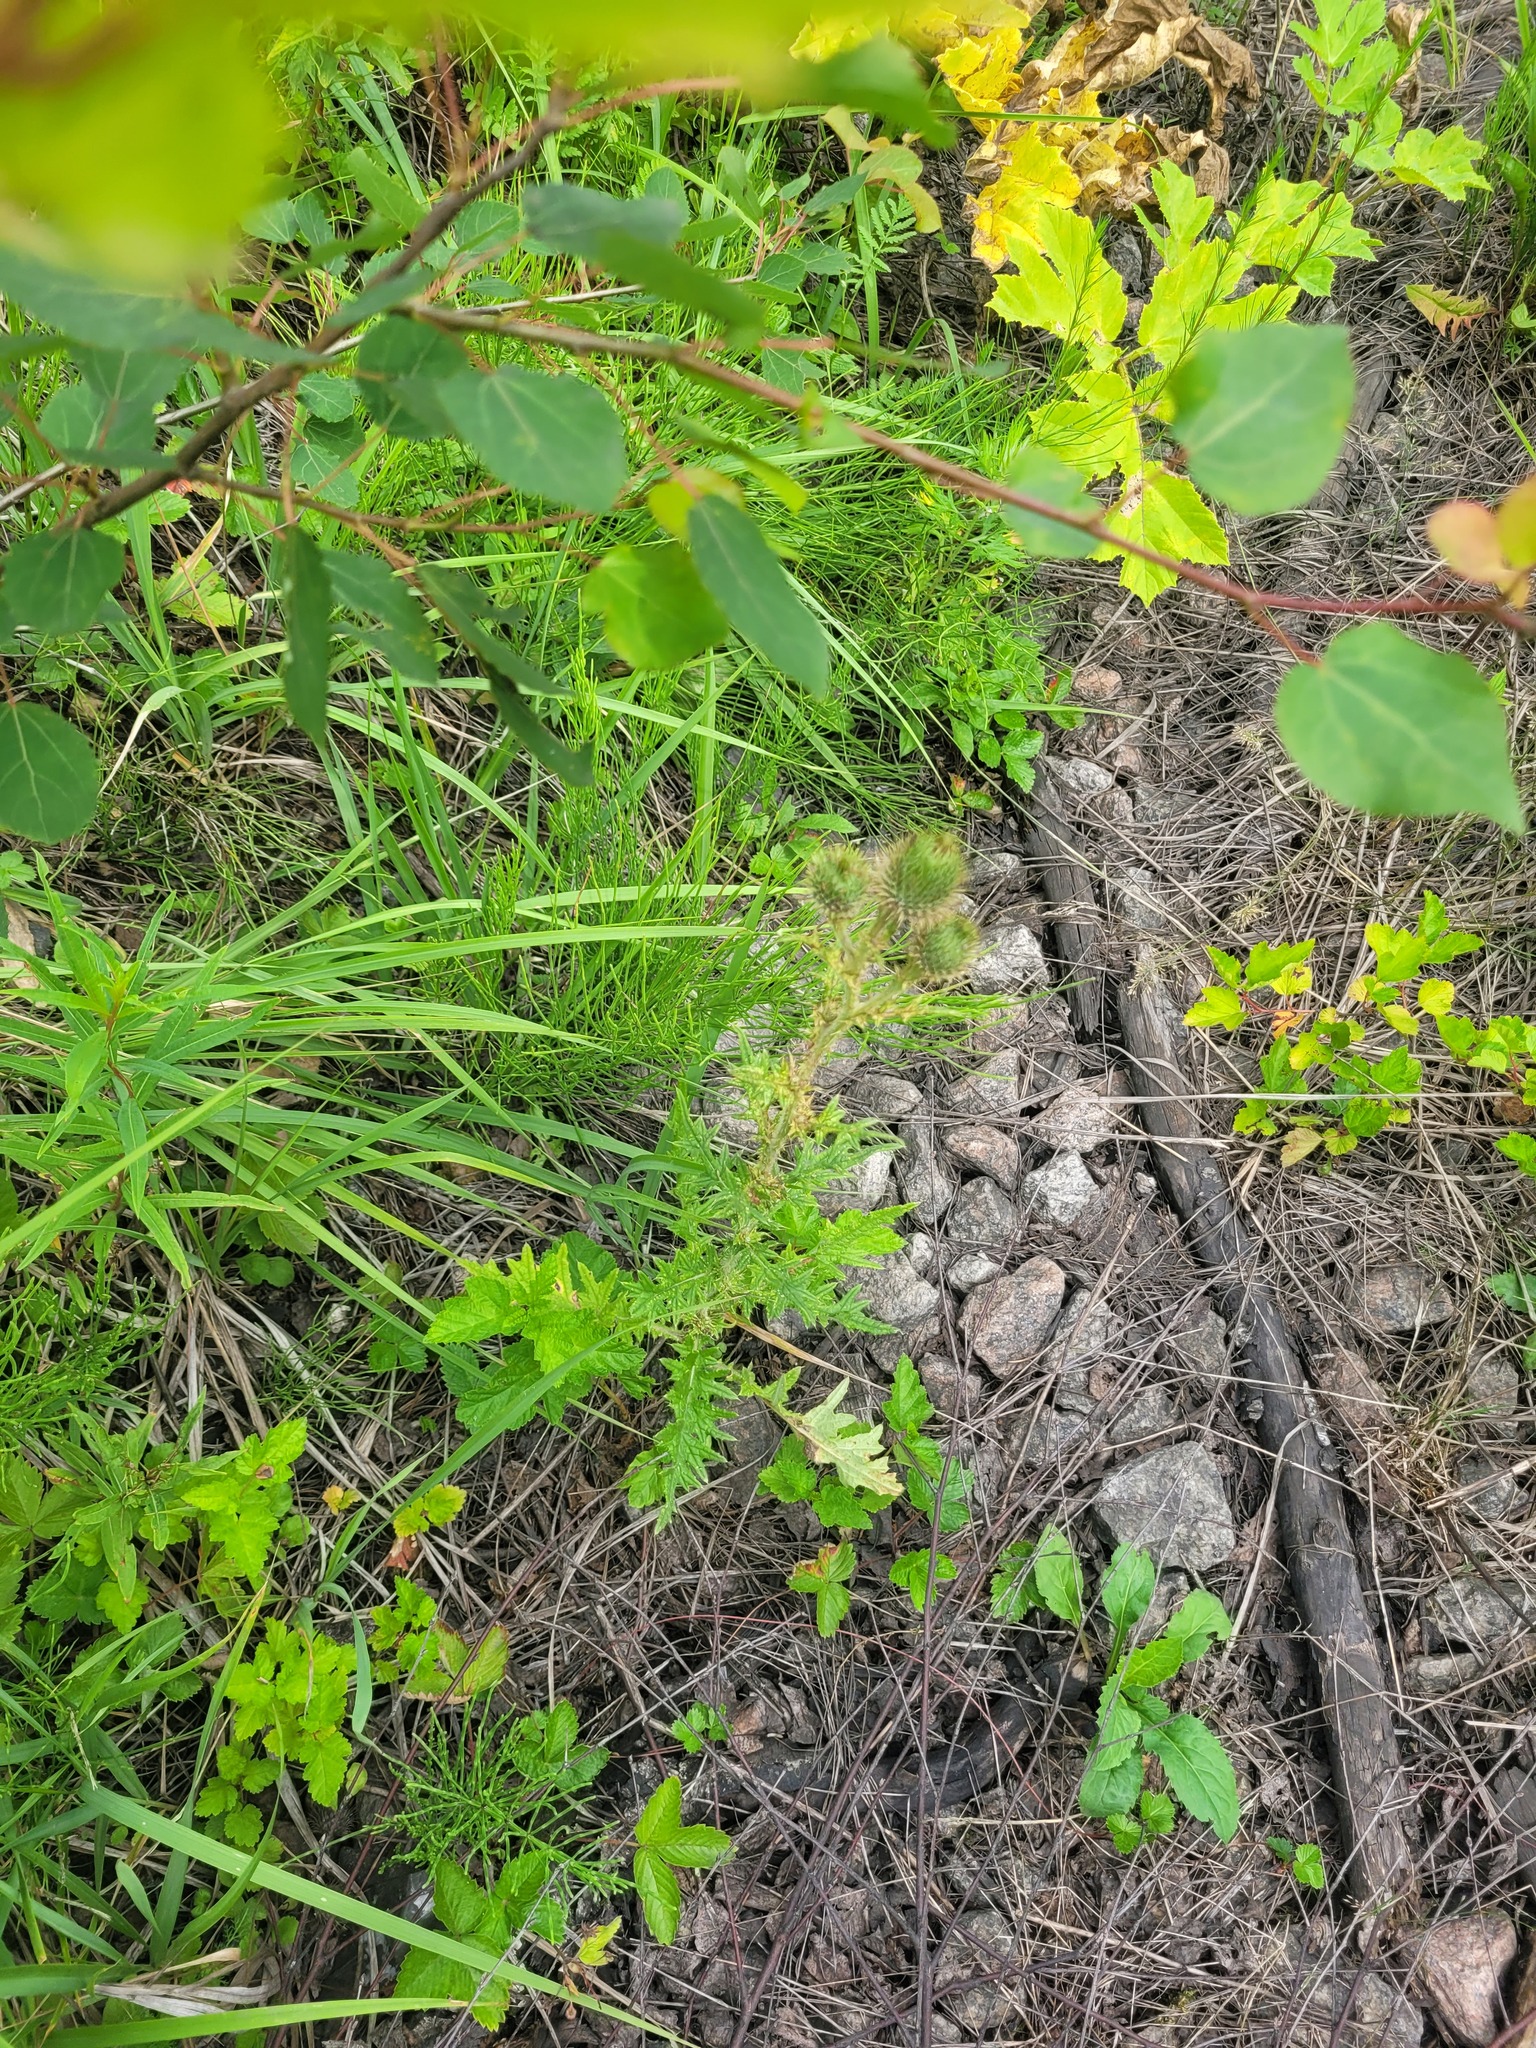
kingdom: Plantae
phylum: Tracheophyta
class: Magnoliopsida
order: Asterales
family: Asteraceae
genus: Cirsium
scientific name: Cirsium vulgare
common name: Bull thistle
